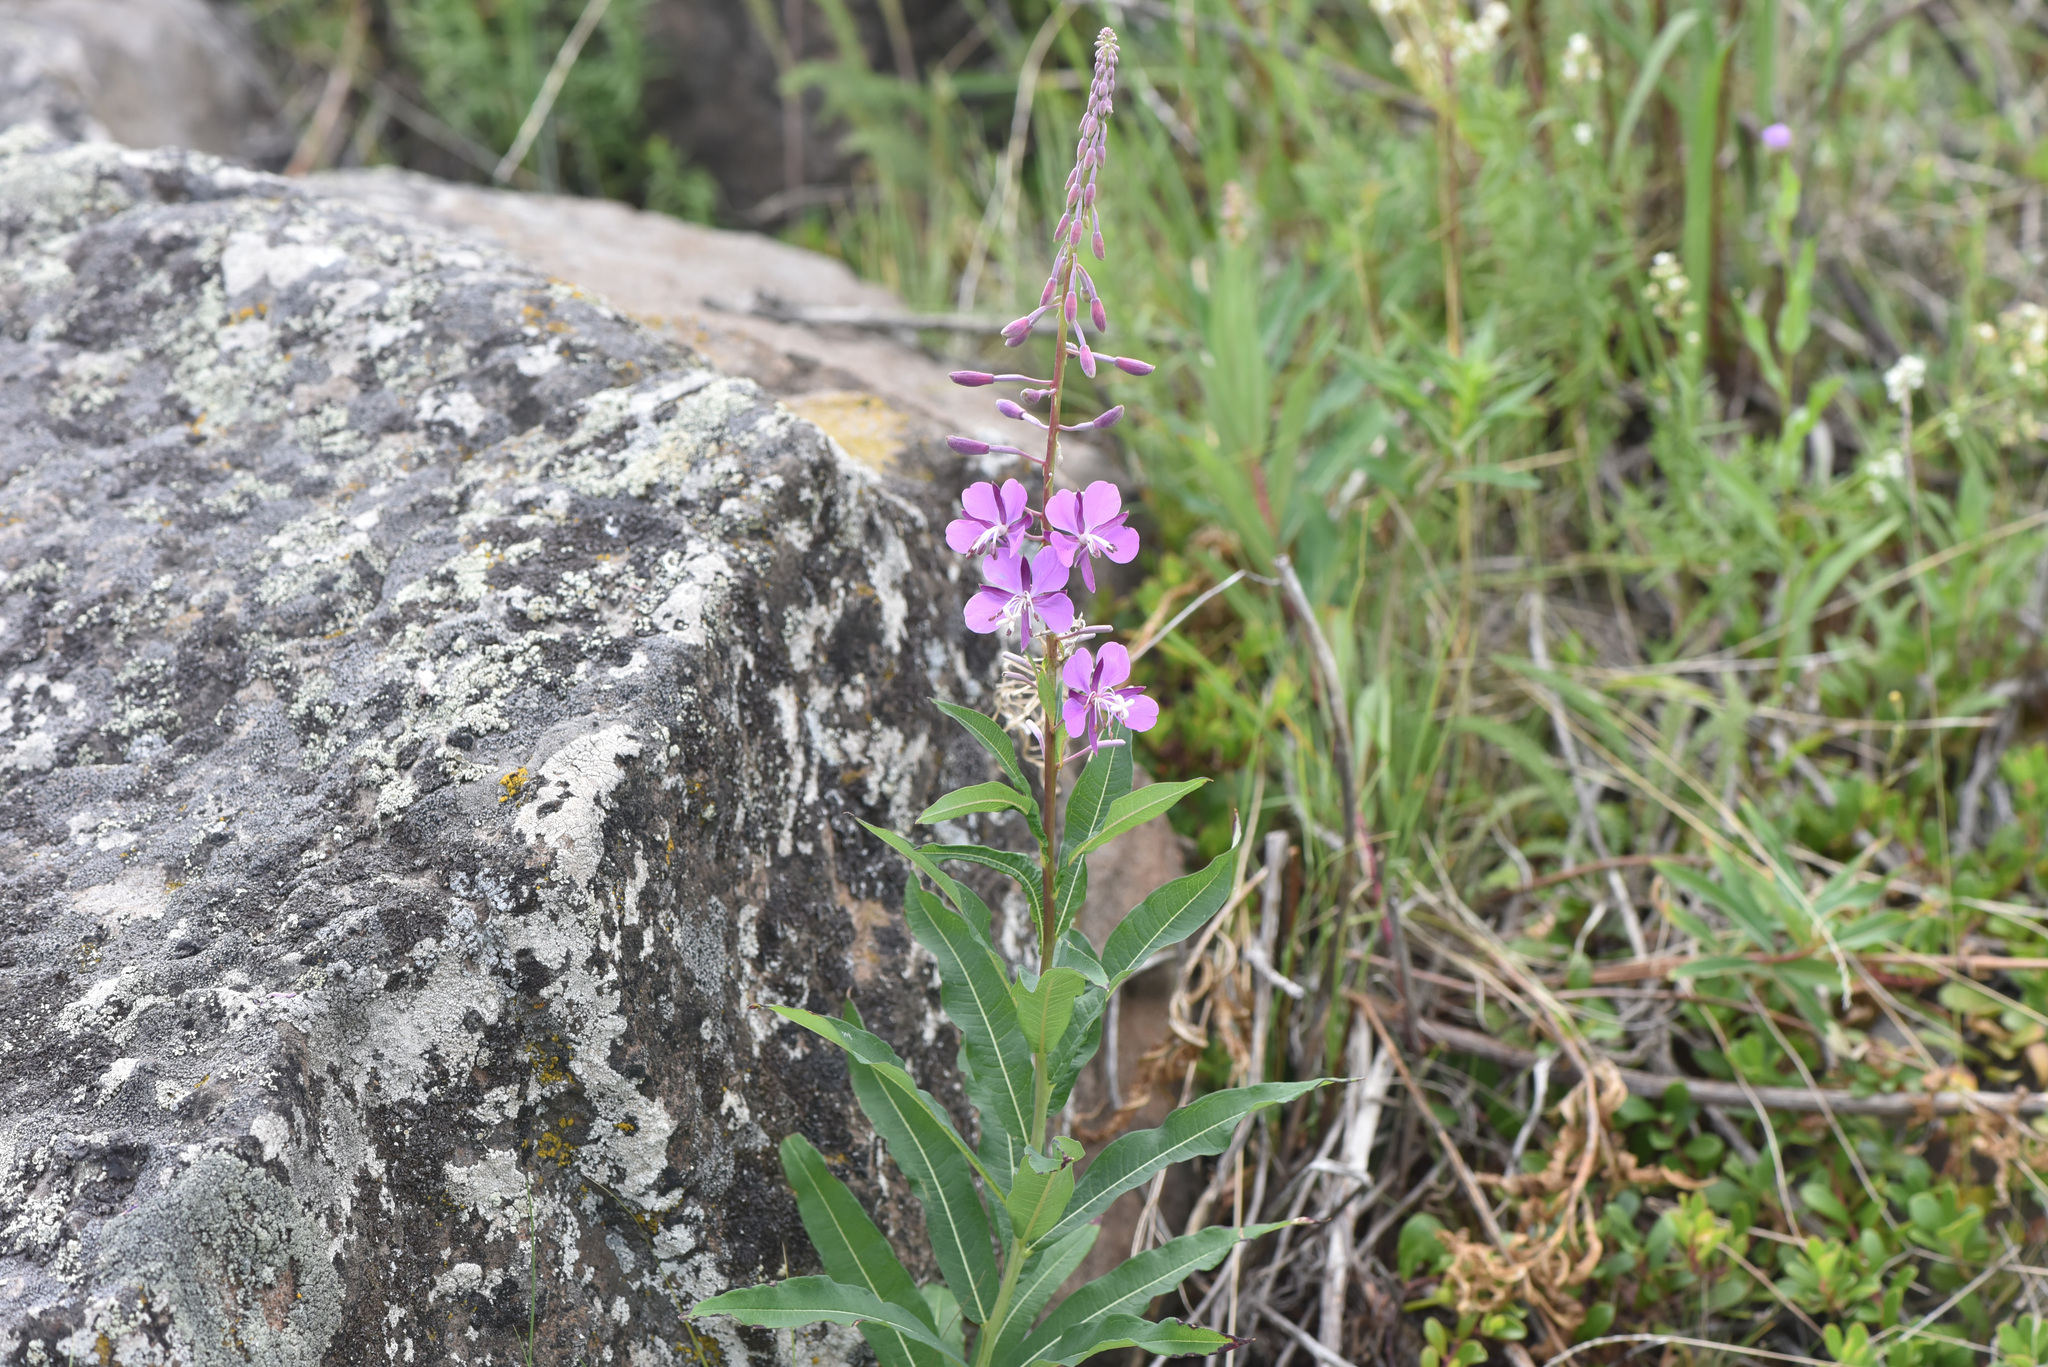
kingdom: Plantae
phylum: Tracheophyta
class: Magnoliopsida
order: Myrtales
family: Onagraceae
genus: Chamaenerion
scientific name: Chamaenerion angustifolium
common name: Fireweed
